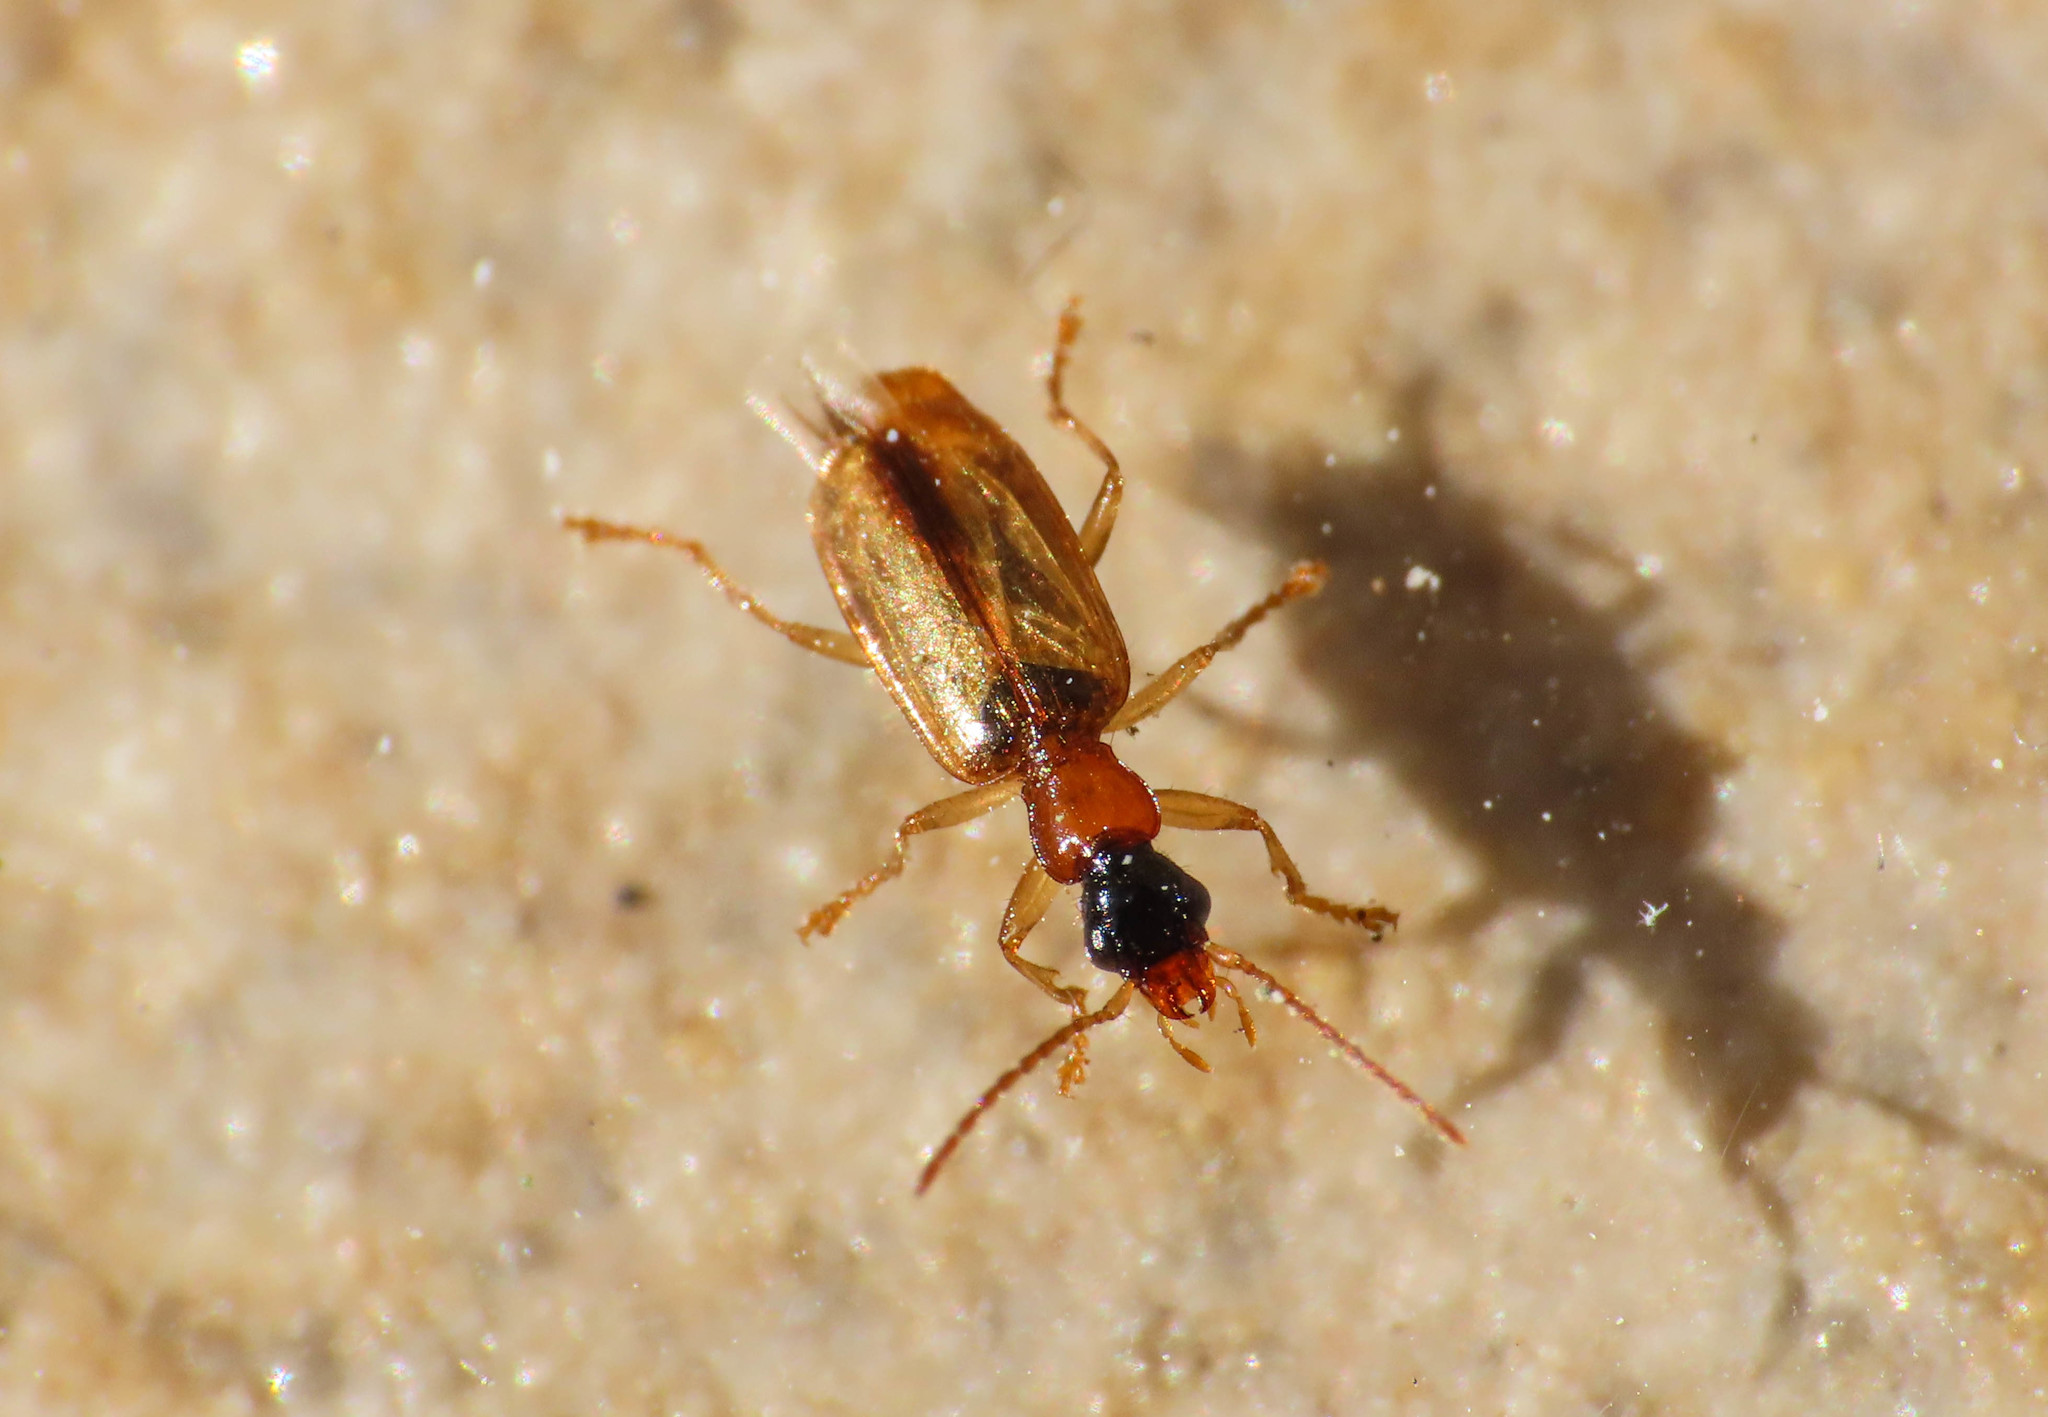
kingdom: Animalia
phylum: Arthropoda
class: Insecta
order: Coleoptera
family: Carabidae
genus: Demetrias
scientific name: Demetrias atricapillus
